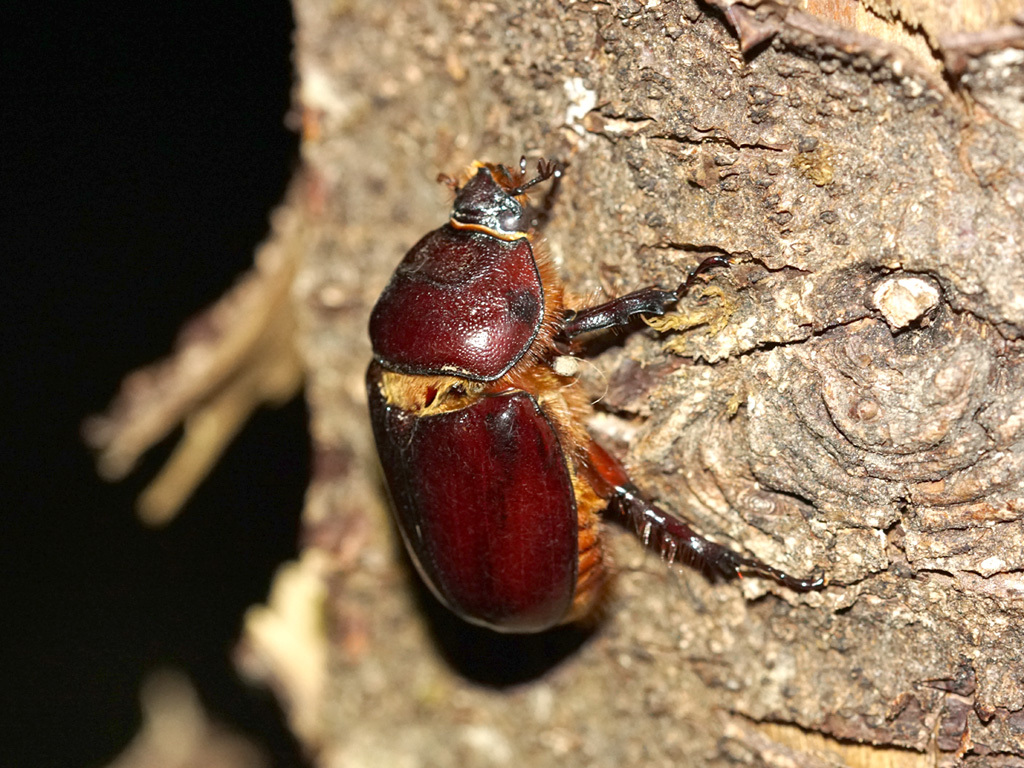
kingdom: Animalia
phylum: Arthropoda
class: Insecta
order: Coleoptera
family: Scarabaeidae
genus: Oryctes
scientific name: Oryctes nasicornis
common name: European rhinoceros beetle
